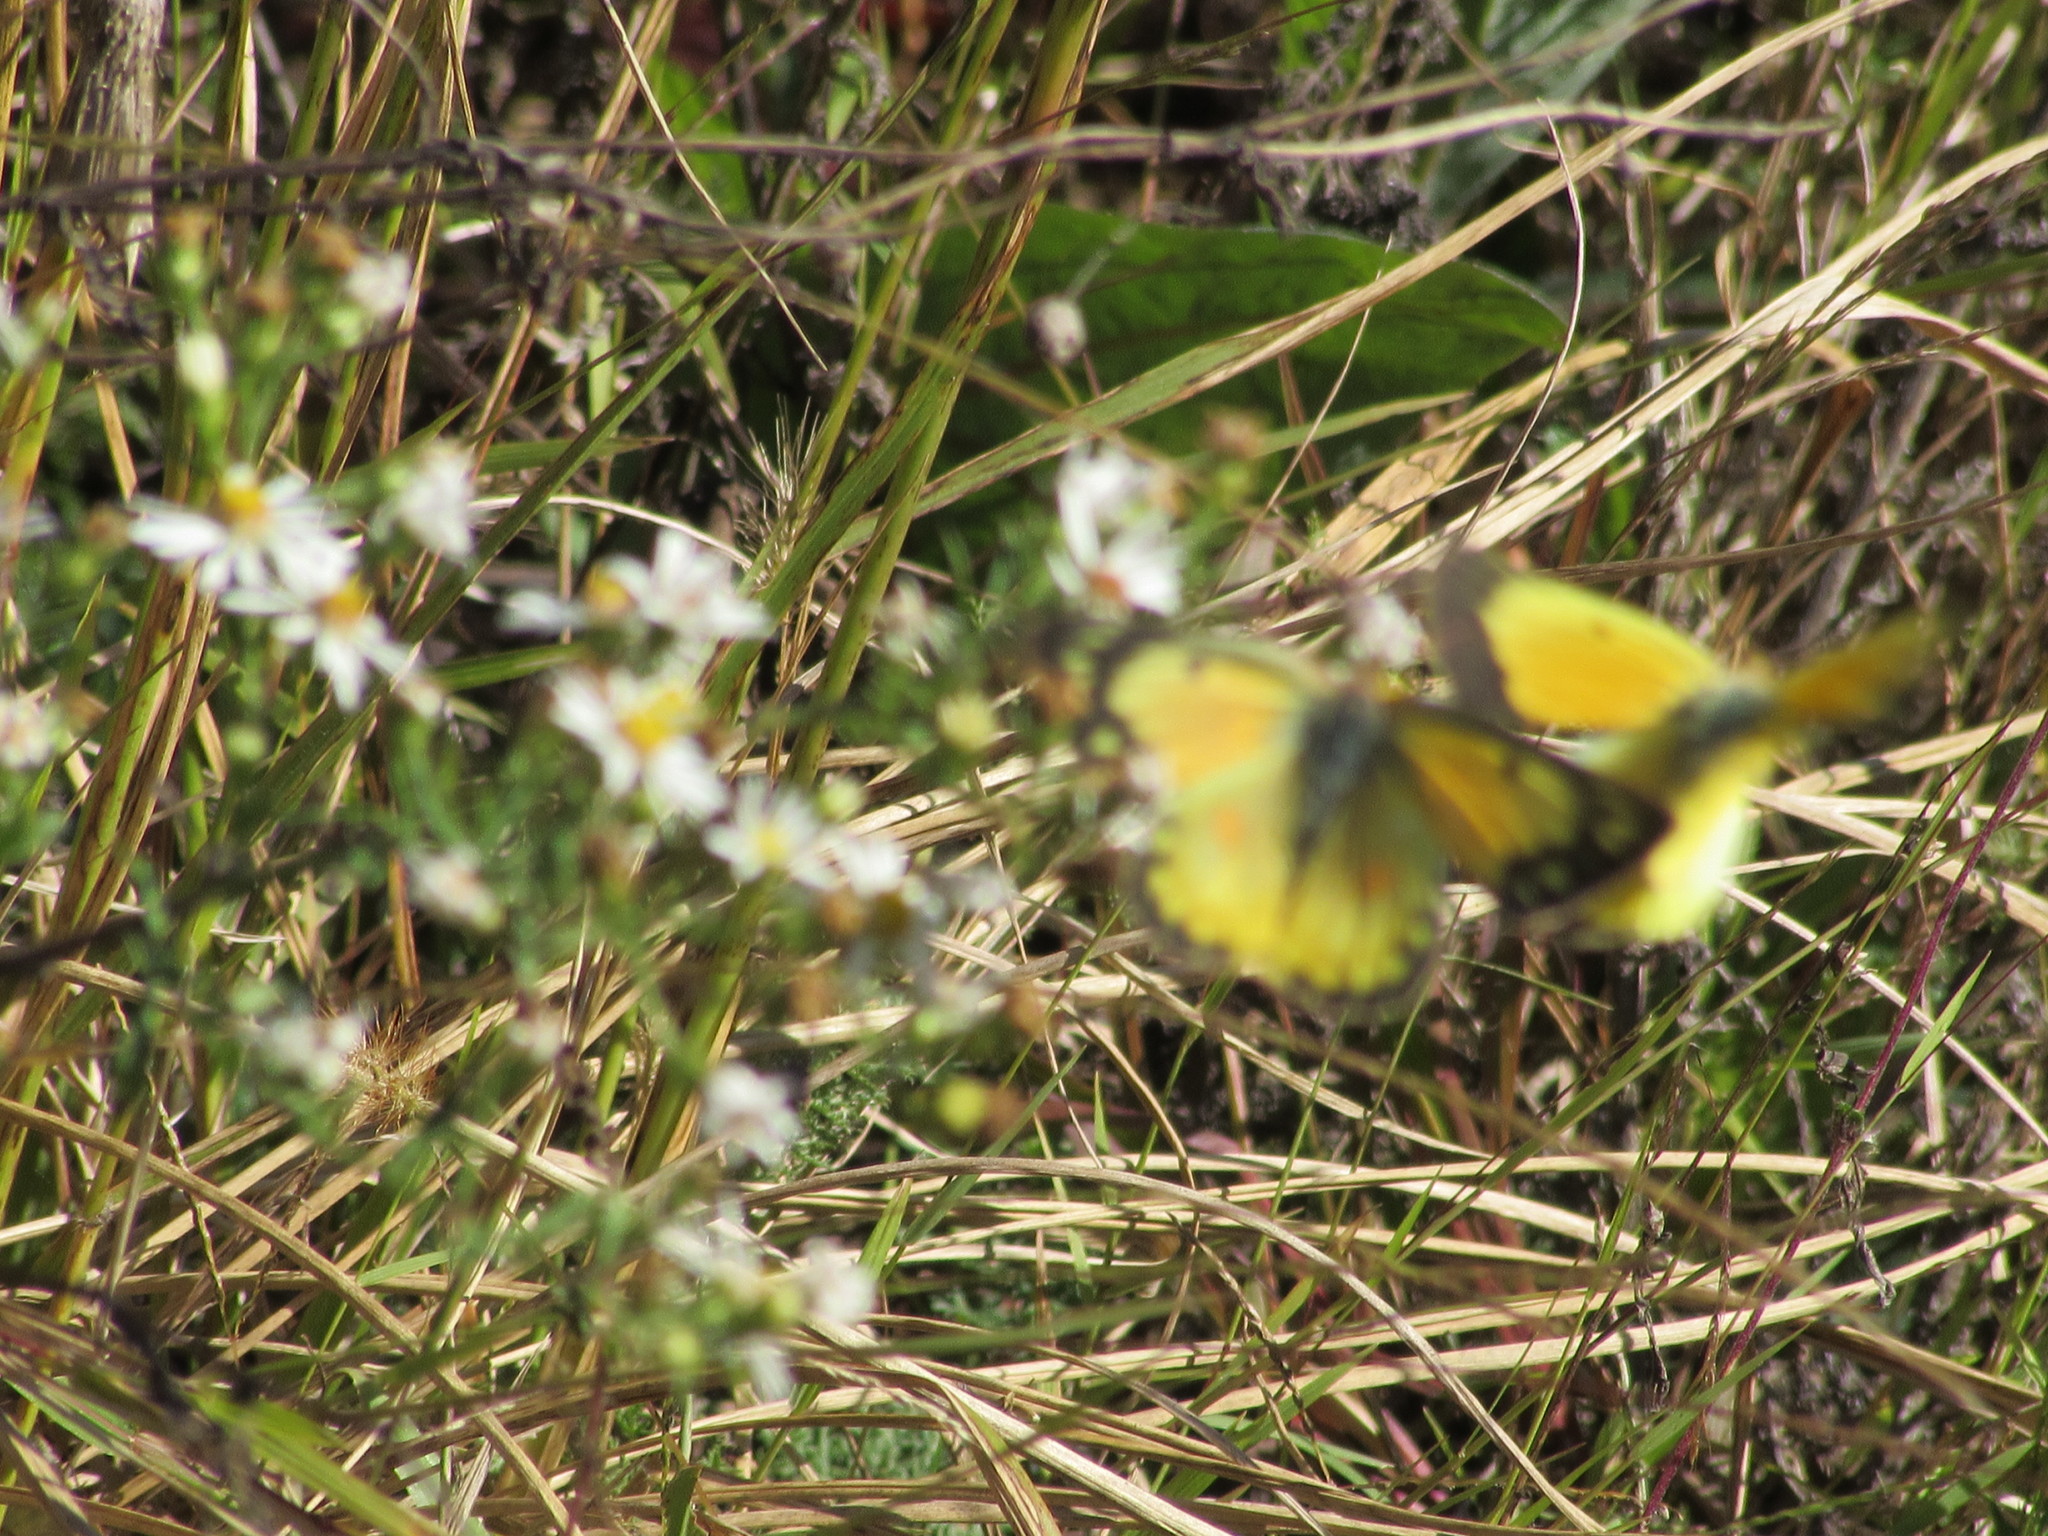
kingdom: Animalia
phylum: Arthropoda
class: Insecta
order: Lepidoptera
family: Pieridae
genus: Colias
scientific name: Colias eurytheme
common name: Alfalfa butterfly
